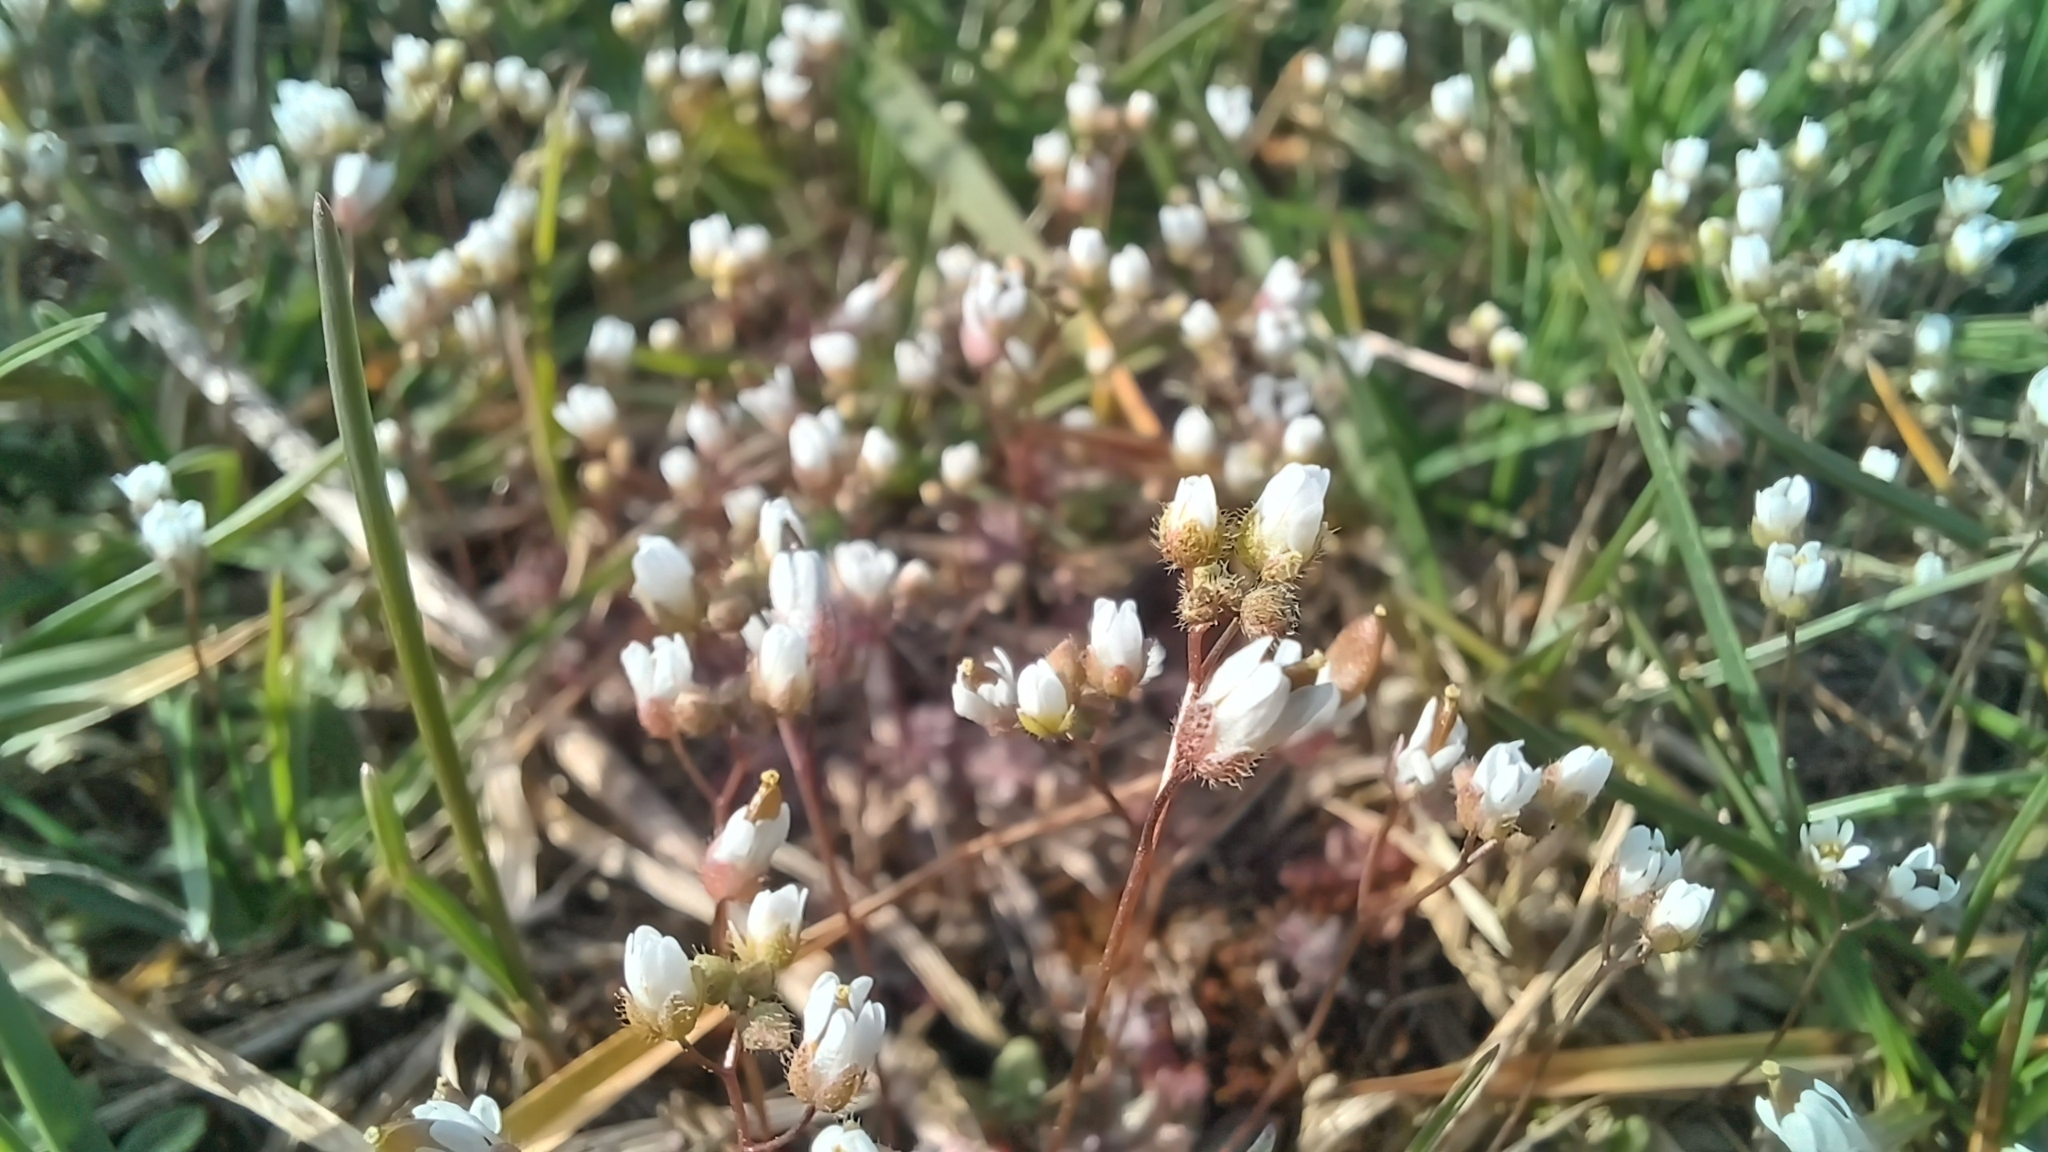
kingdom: Plantae
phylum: Tracheophyta
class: Magnoliopsida
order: Brassicales
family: Brassicaceae
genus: Draba
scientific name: Draba verna
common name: Spring draba
